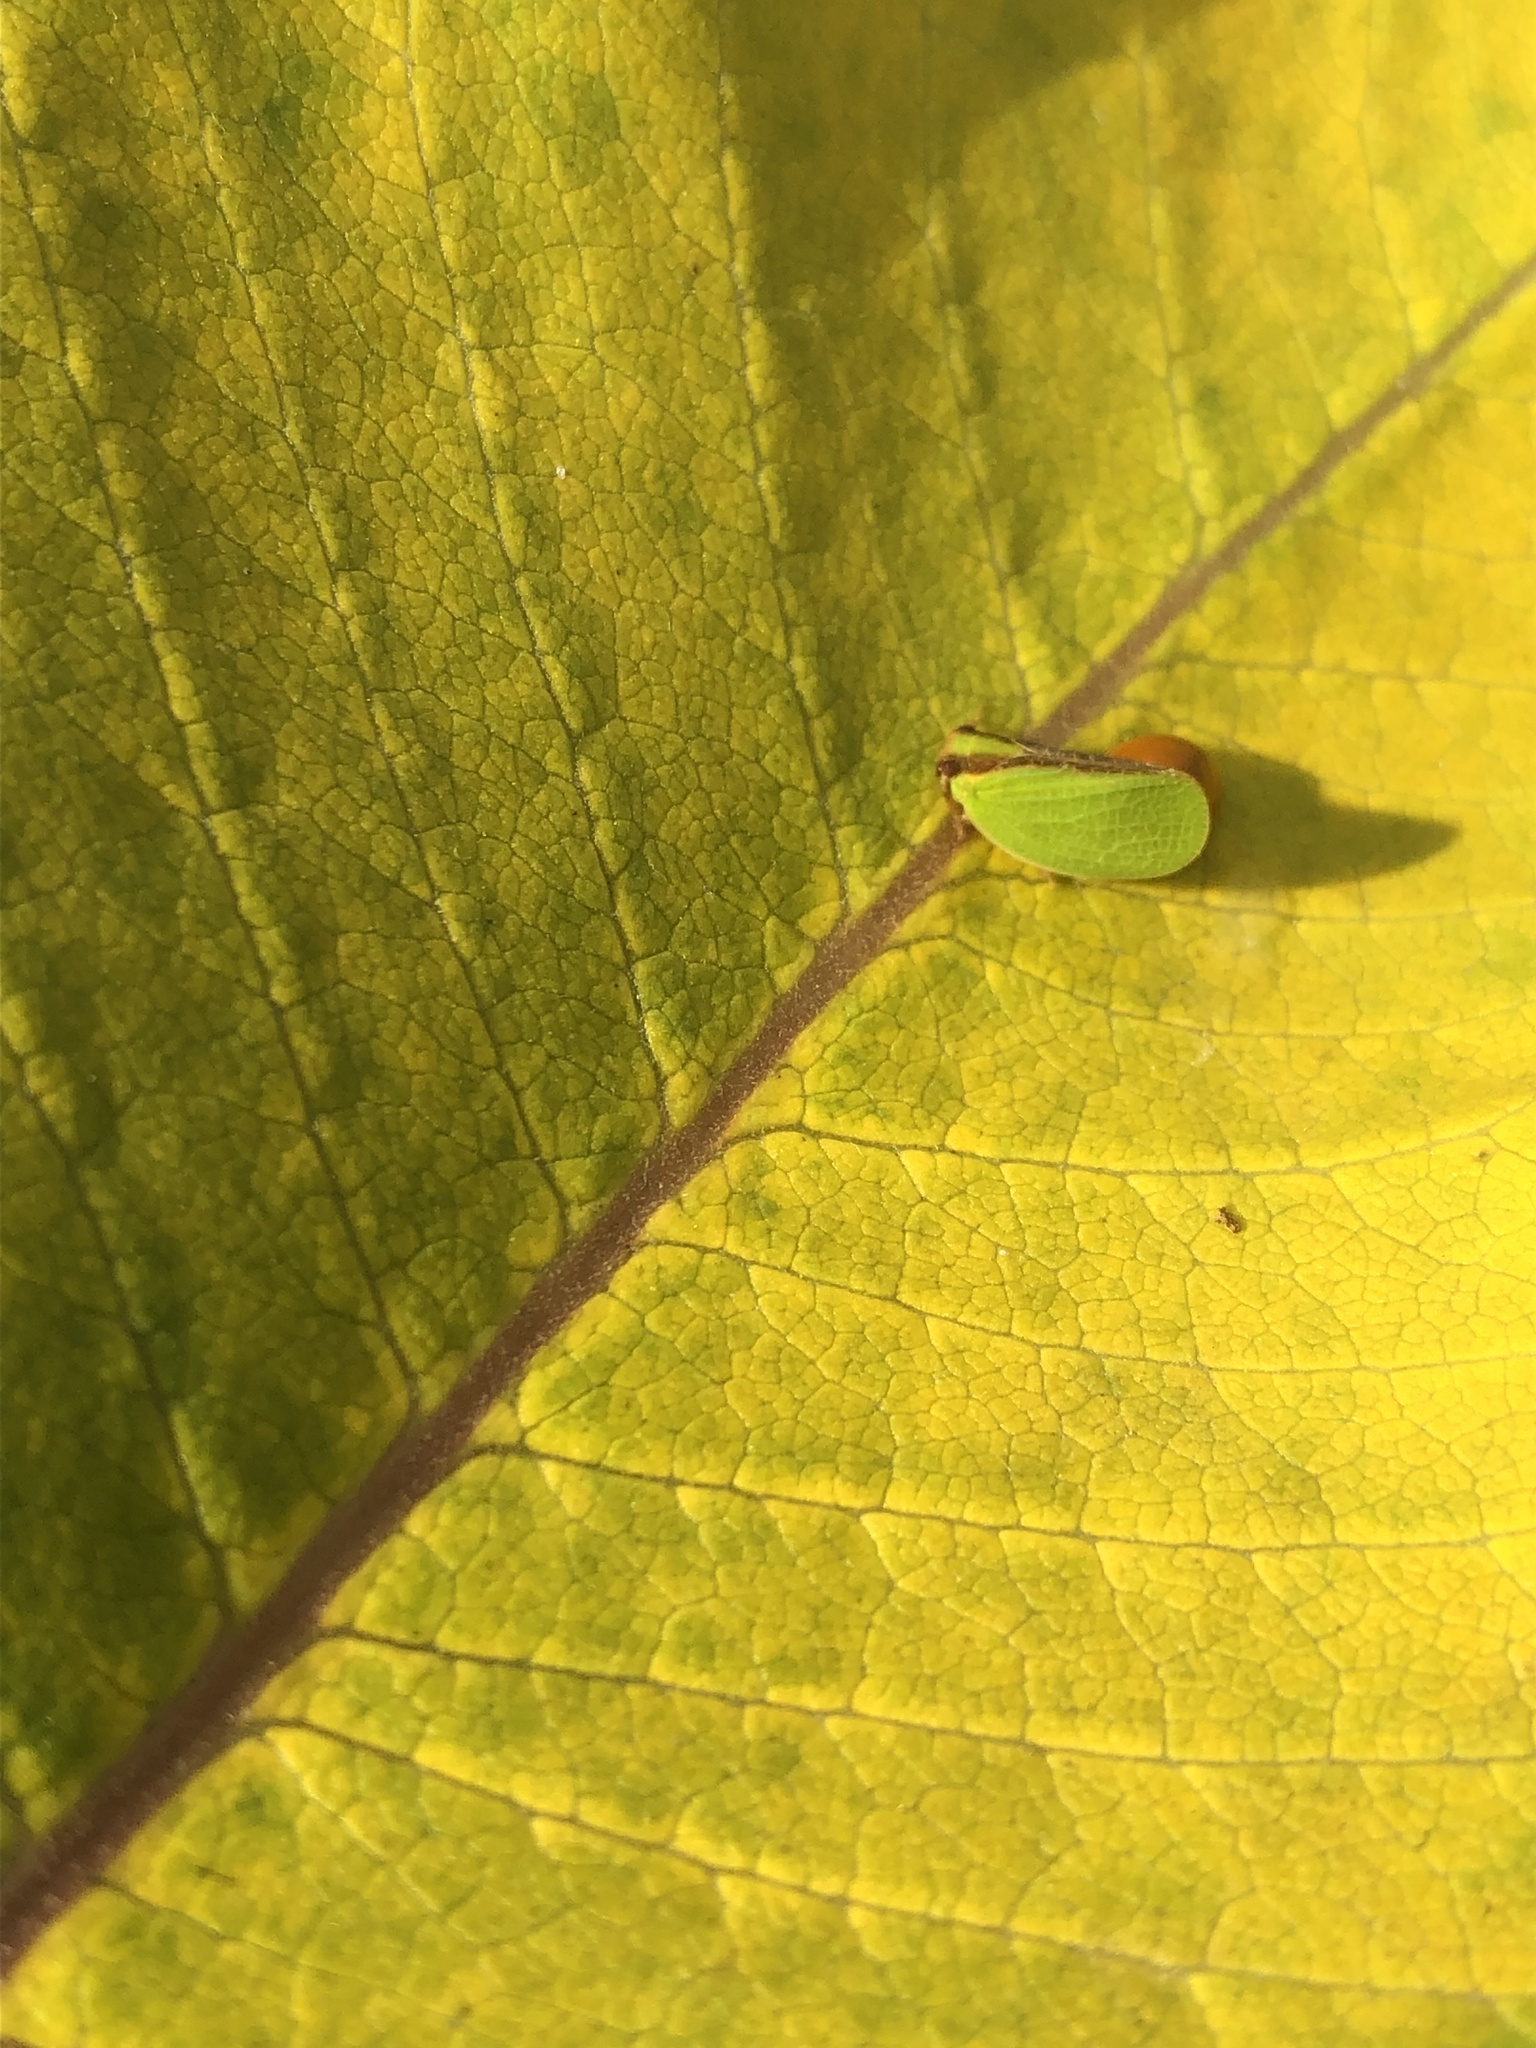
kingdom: Animalia
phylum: Arthropoda
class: Insecta
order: Hemiptera
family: Acanaloniidae
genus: Acanalonia
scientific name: Acanalonia bivittata
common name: Two-striped planthopper
